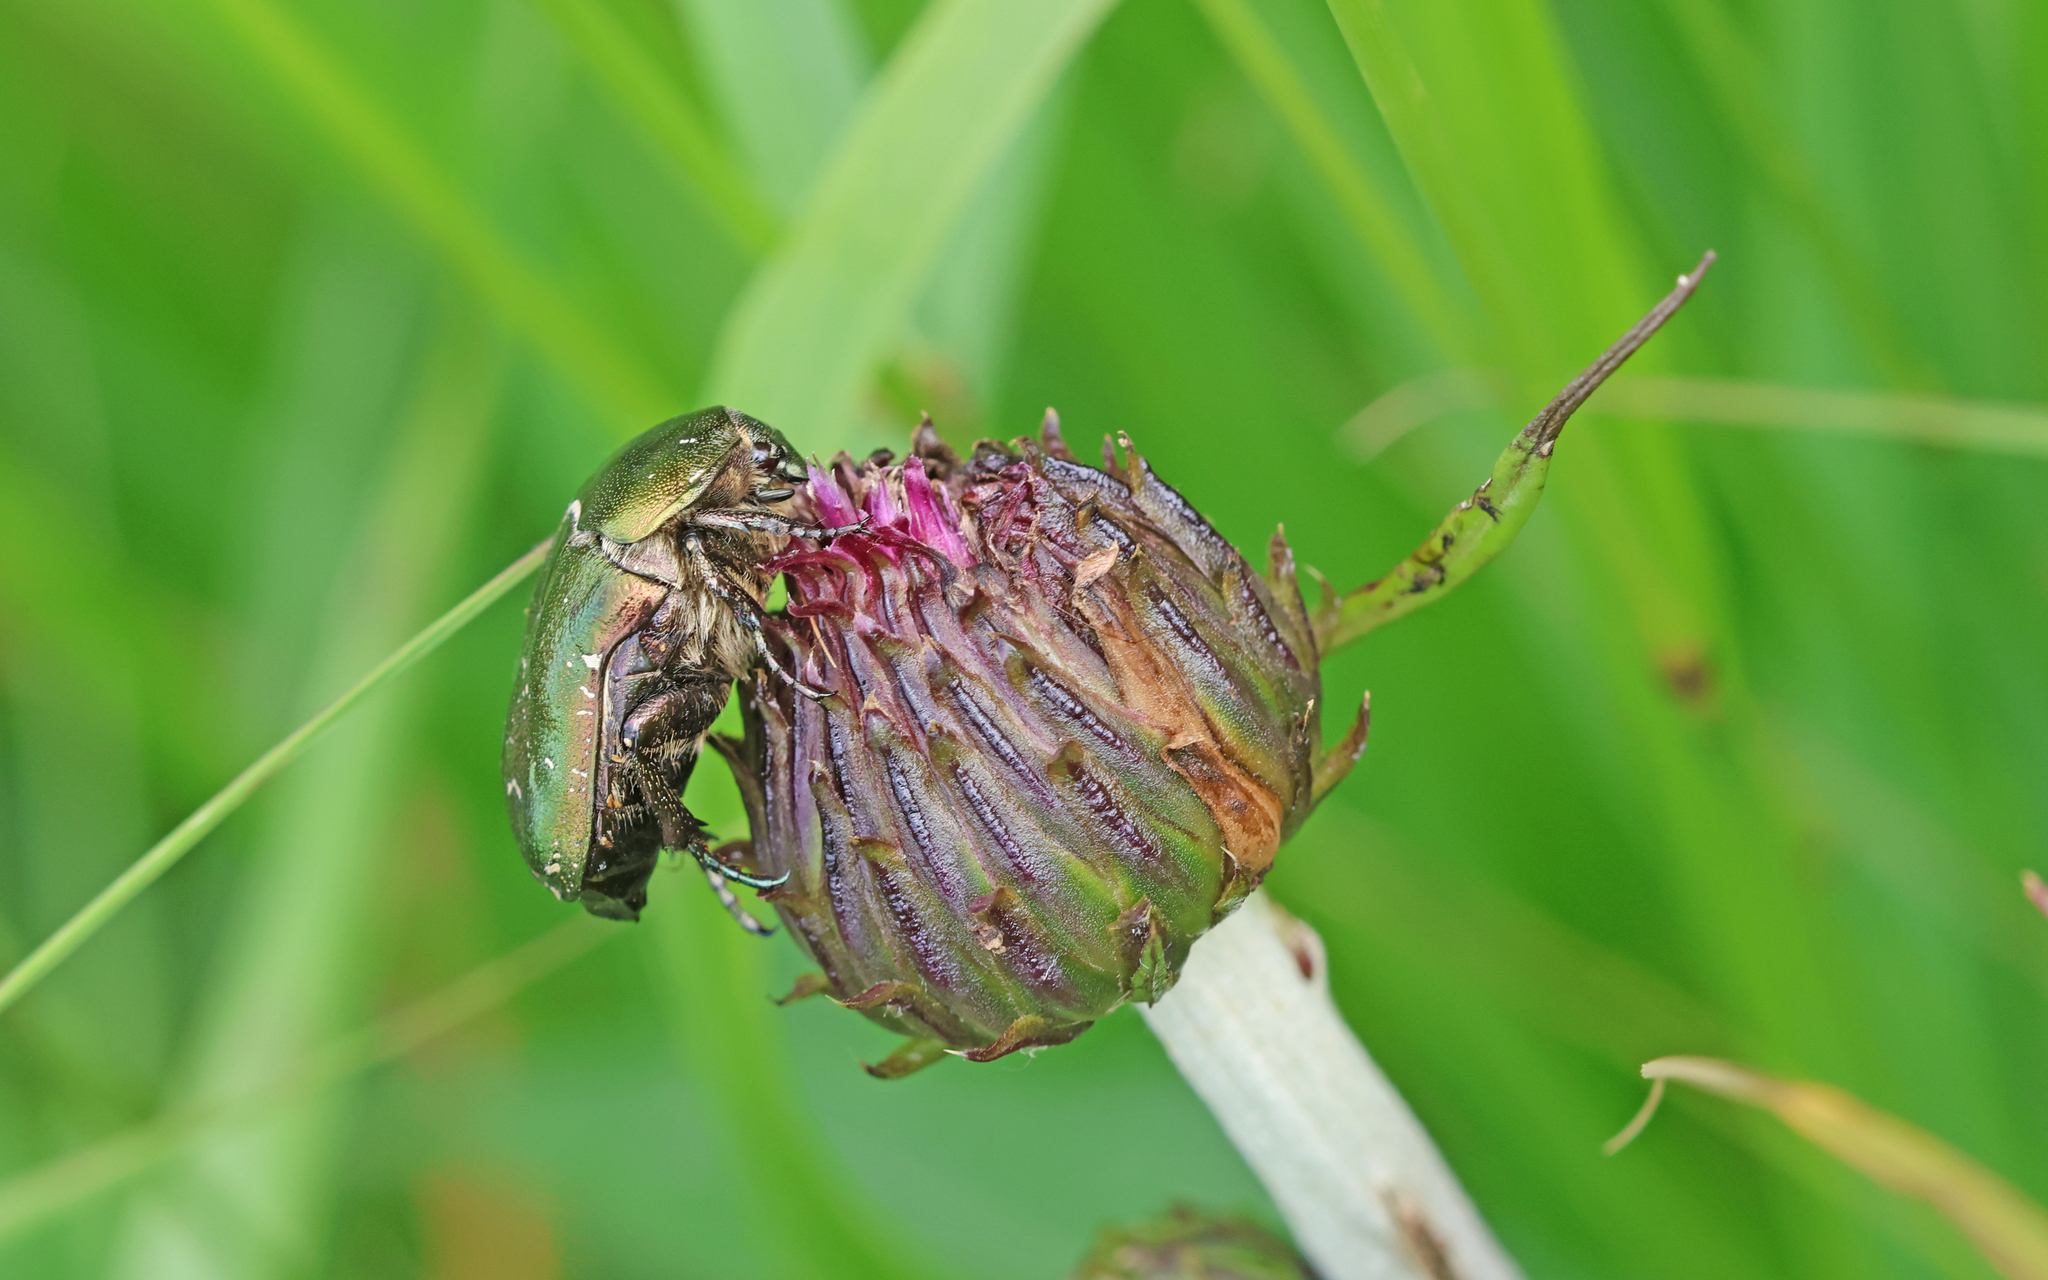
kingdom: Animalia
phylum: Arthropoda
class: Insecta
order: Coleoptera
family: Scarabaeidae
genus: Protaetia
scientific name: Protaetia cuprea
